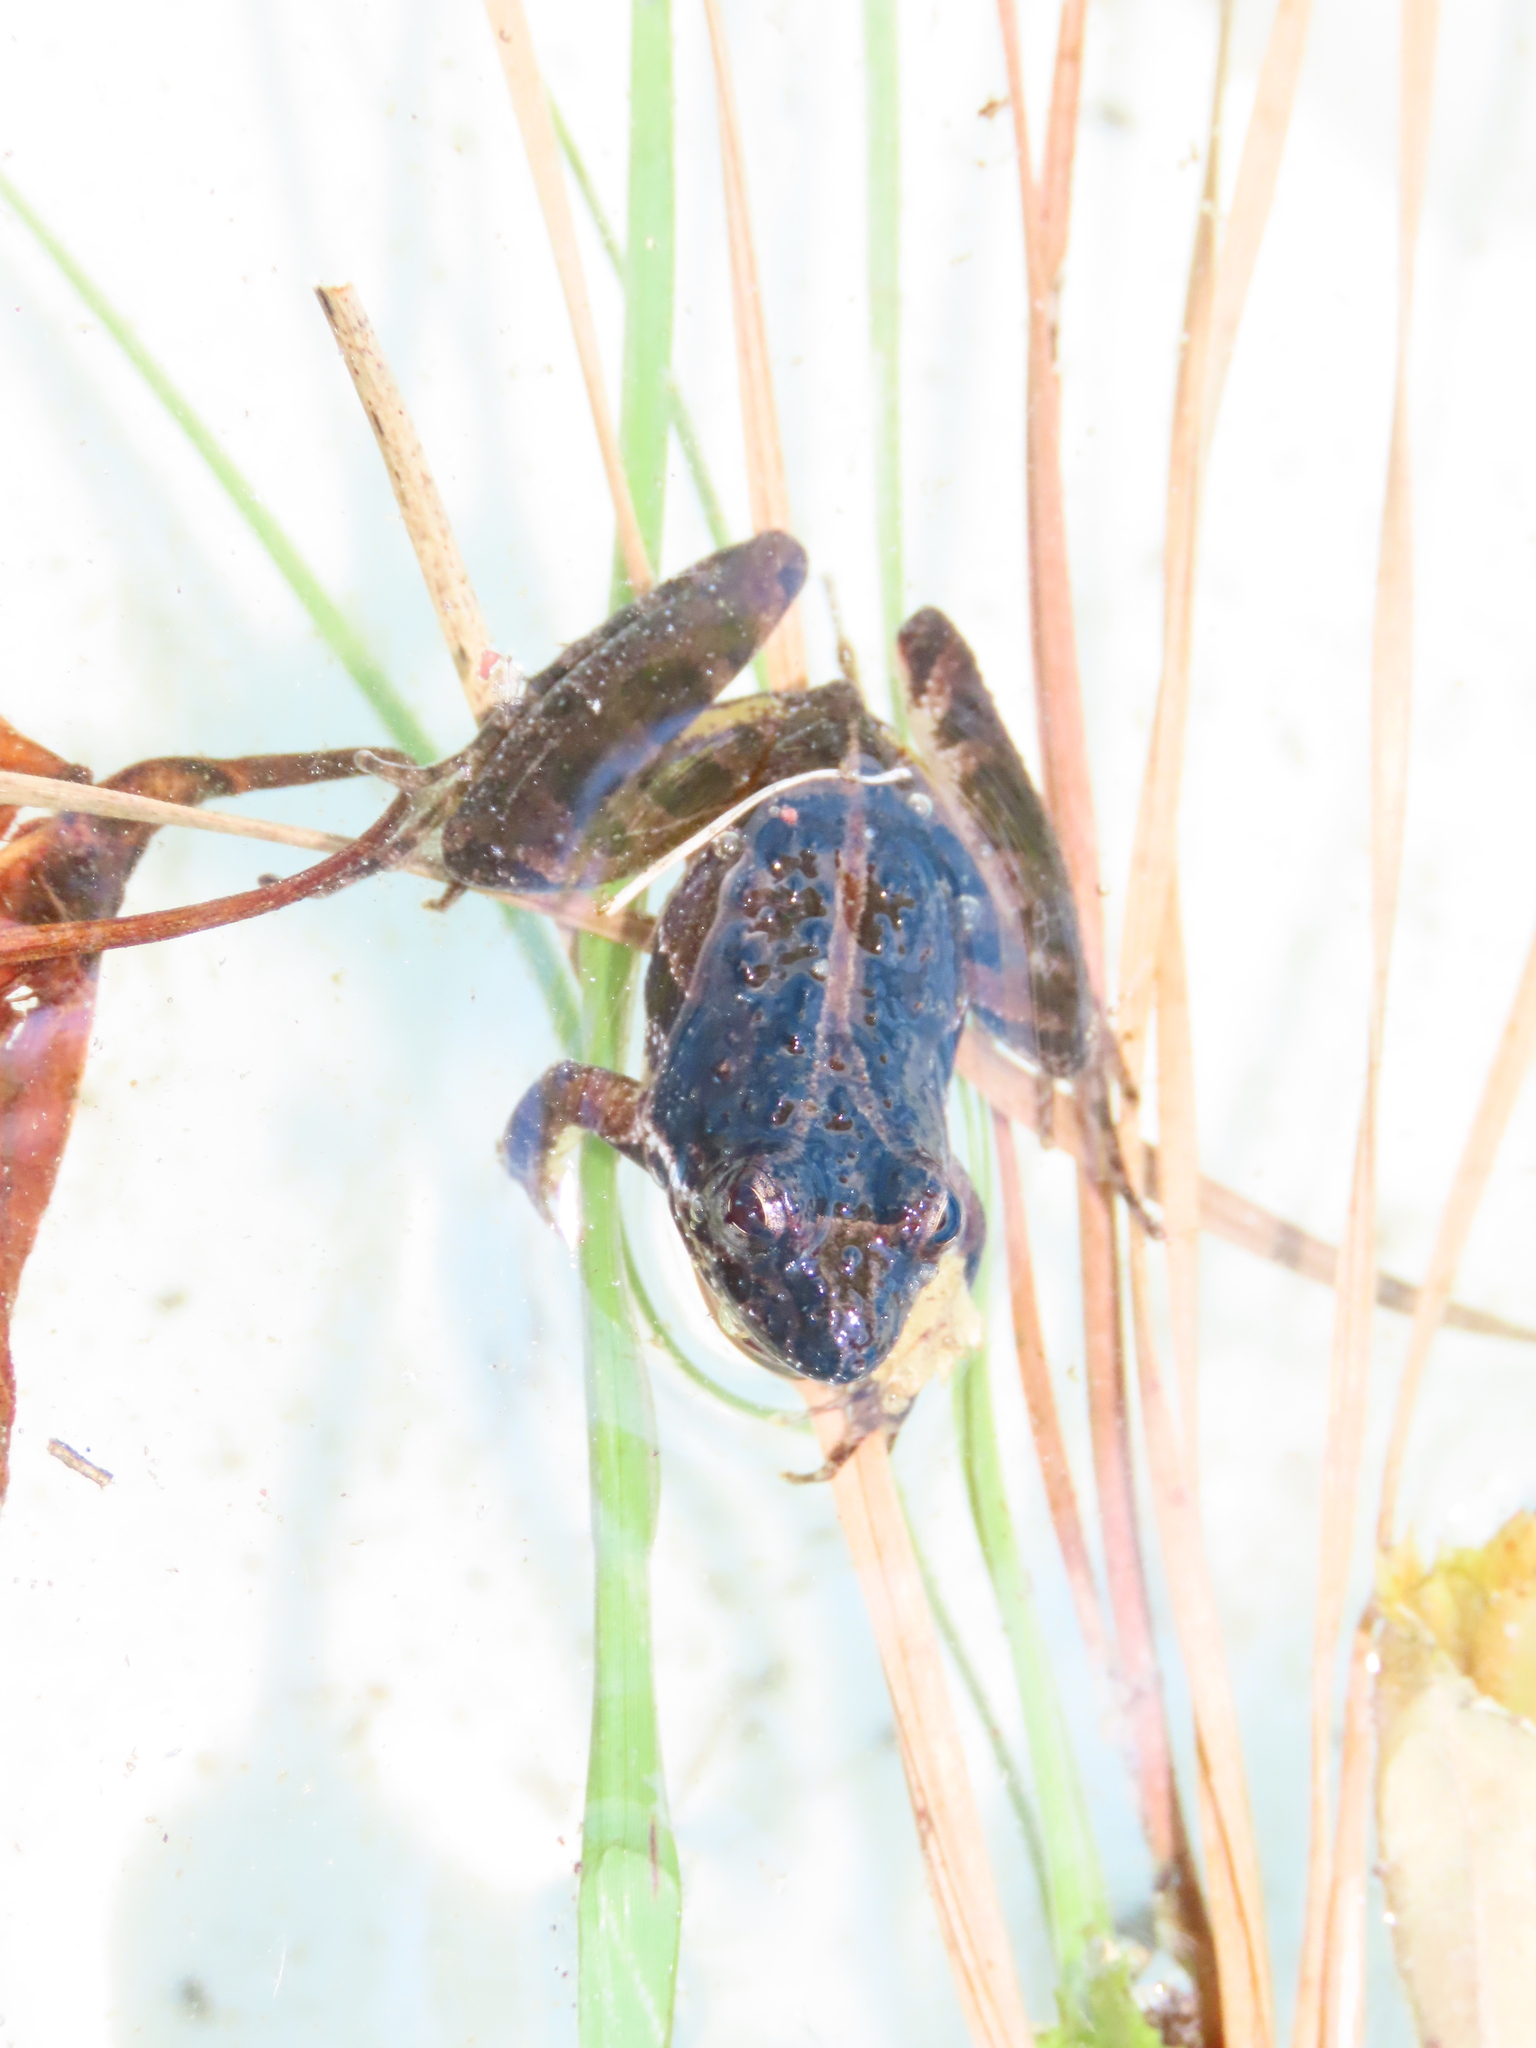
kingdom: Animalia
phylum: Chordata
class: Amphibia
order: Anura
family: Hylidae
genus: Acris
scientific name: Acris gryllus
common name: Southern cricket frog
